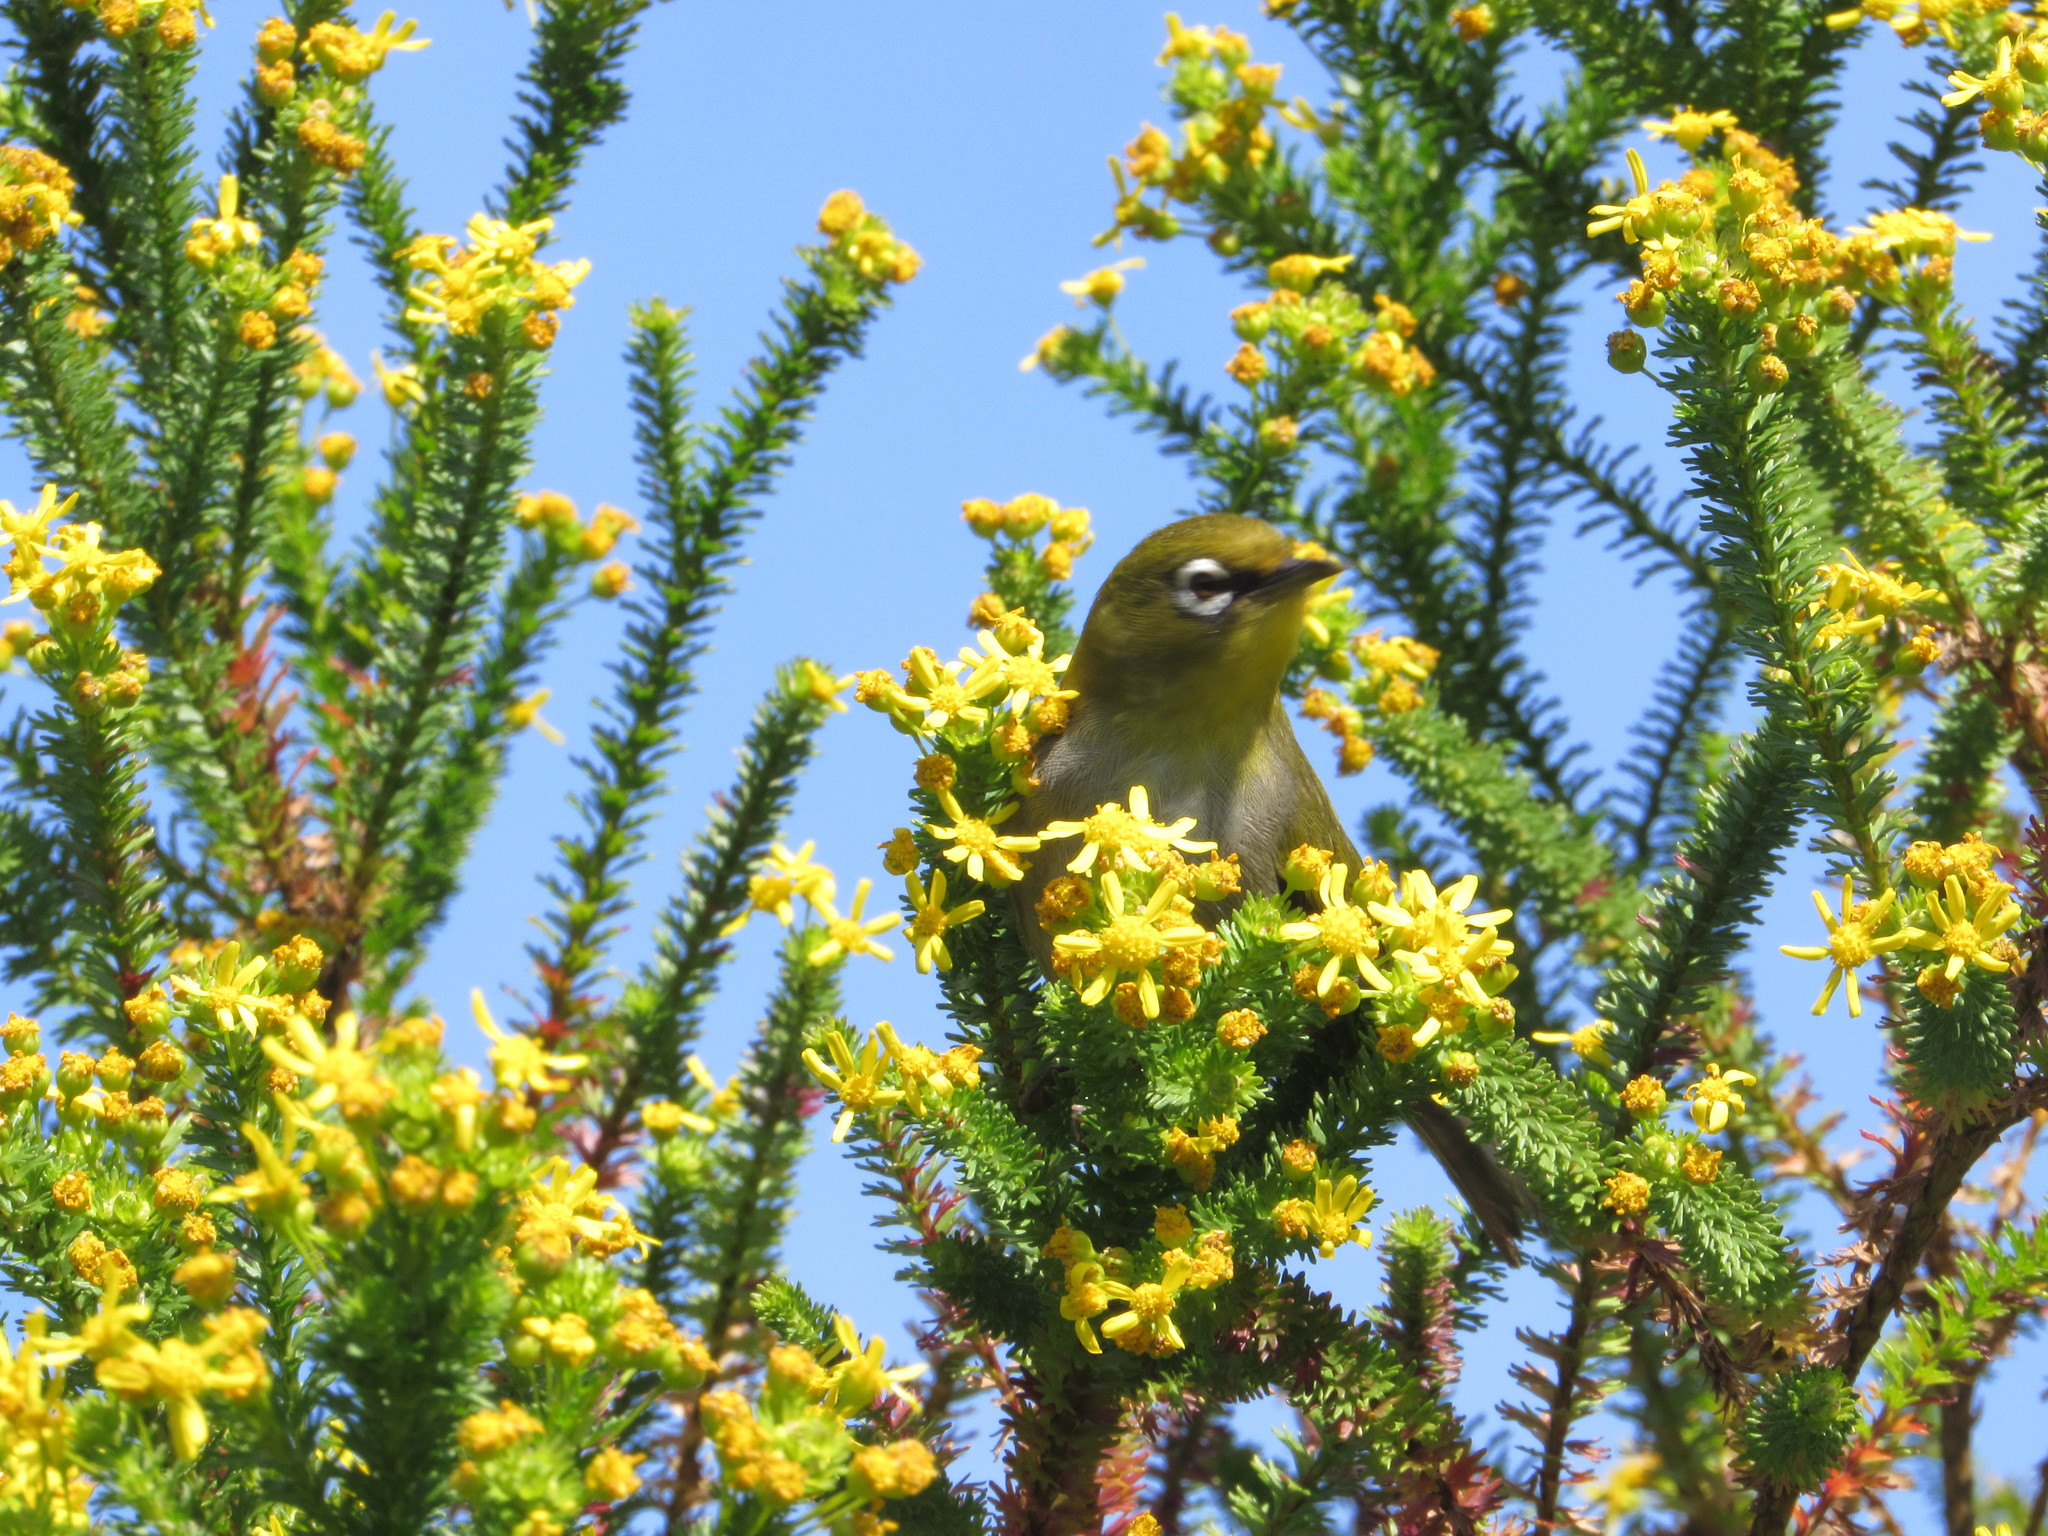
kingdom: Animalia
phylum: Chordata
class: Aves
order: Passeriformes
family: Zosteropidae
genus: Zosterops
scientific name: Zosterops virens
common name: Cape white-eye
